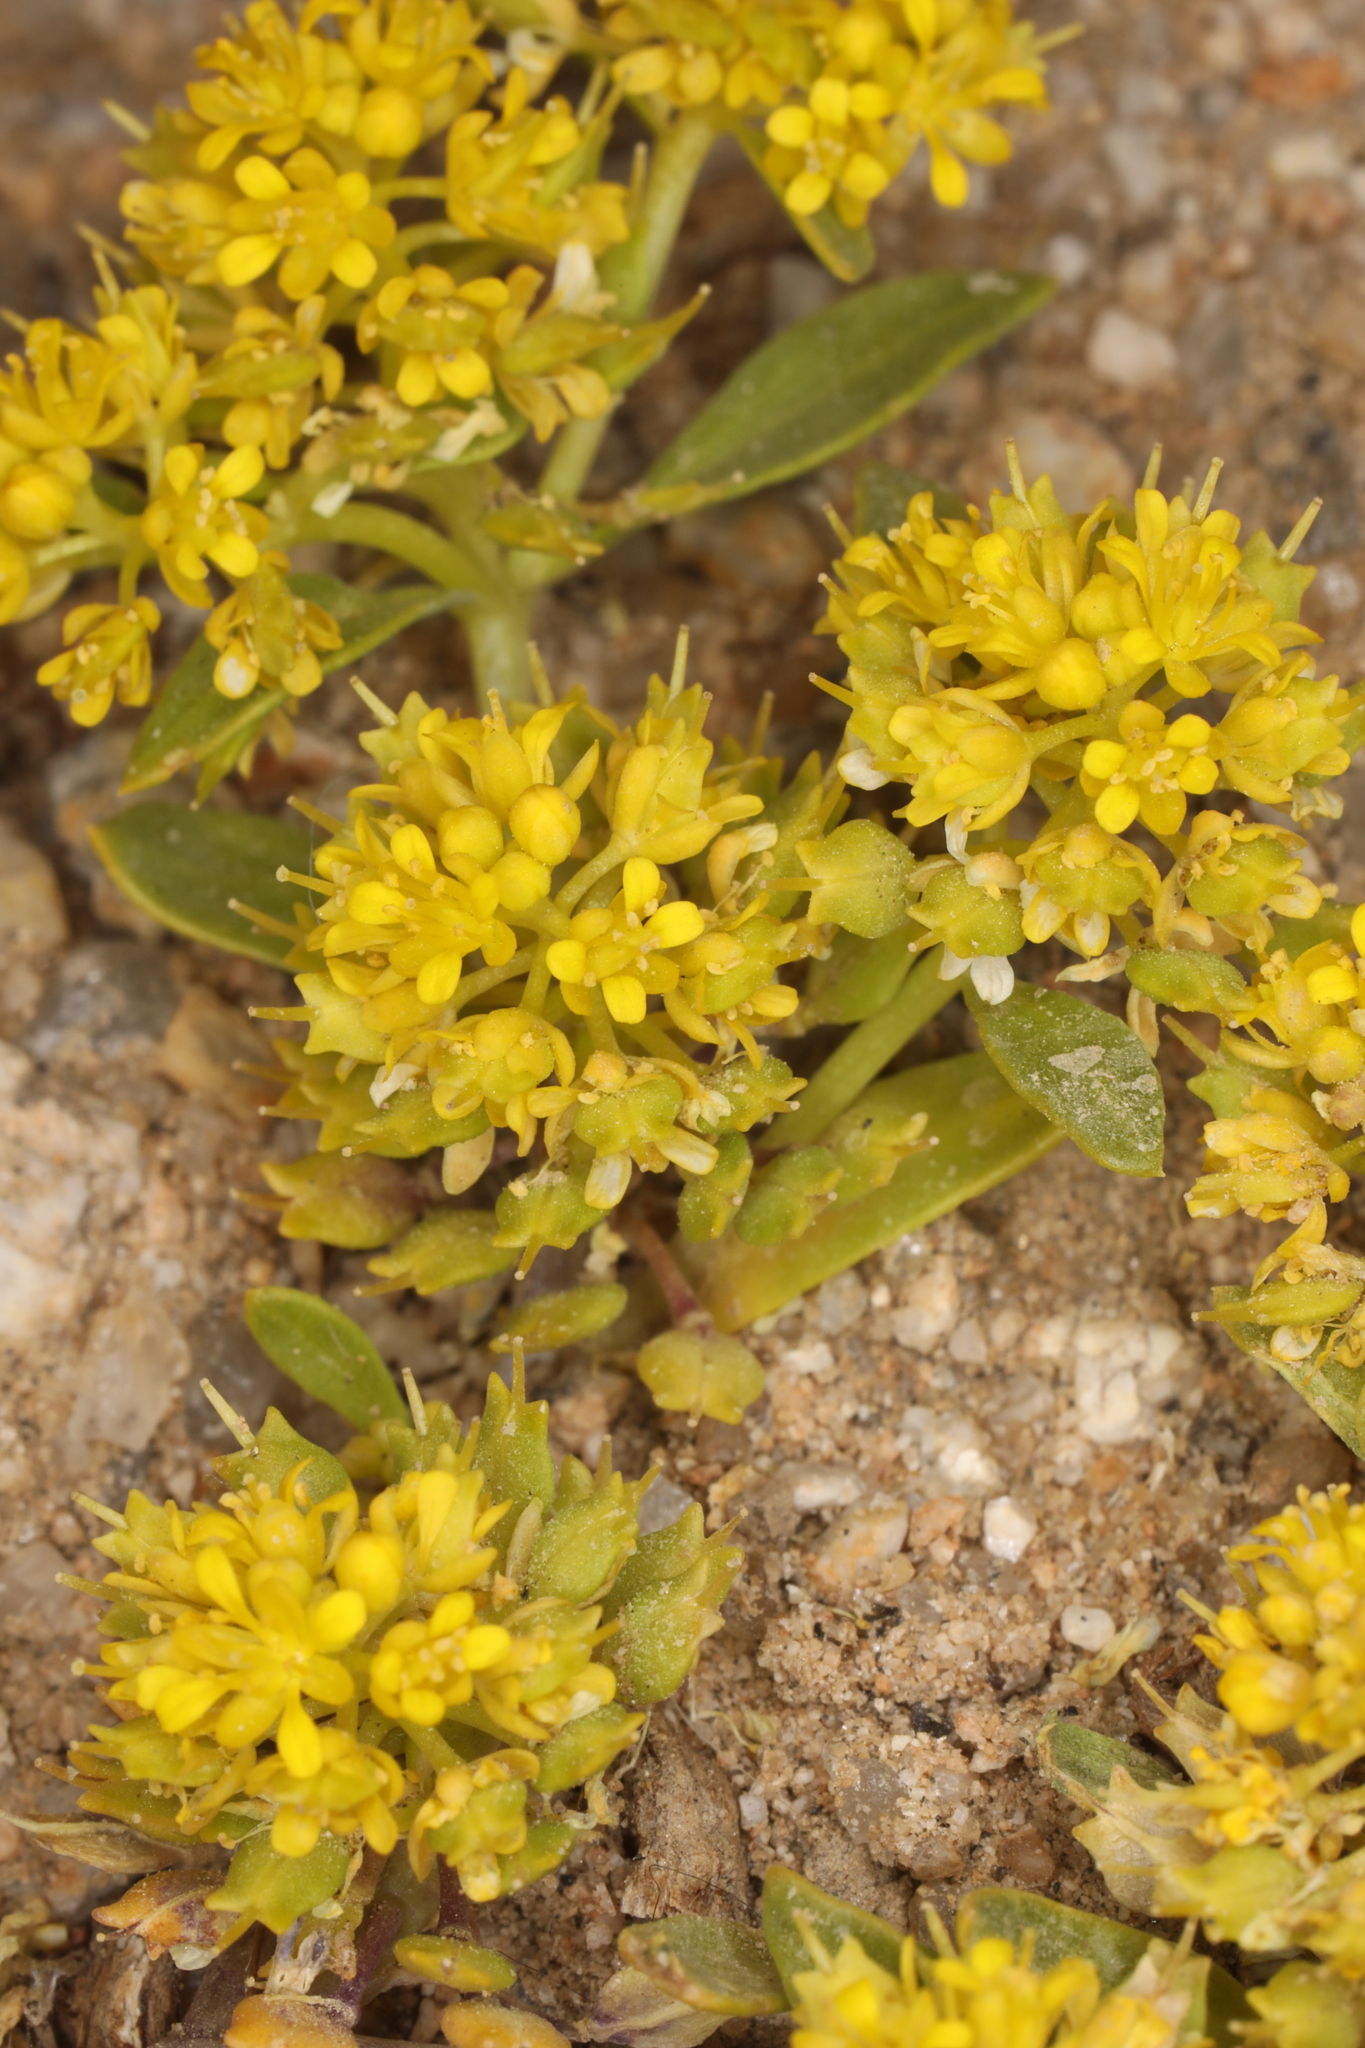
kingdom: Plantae
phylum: Tracheophyta
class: Magnoliopsida
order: Brassicales
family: Brassicaceae
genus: Lepidium
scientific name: Lepidium flavum
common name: Yellow pepperwort
